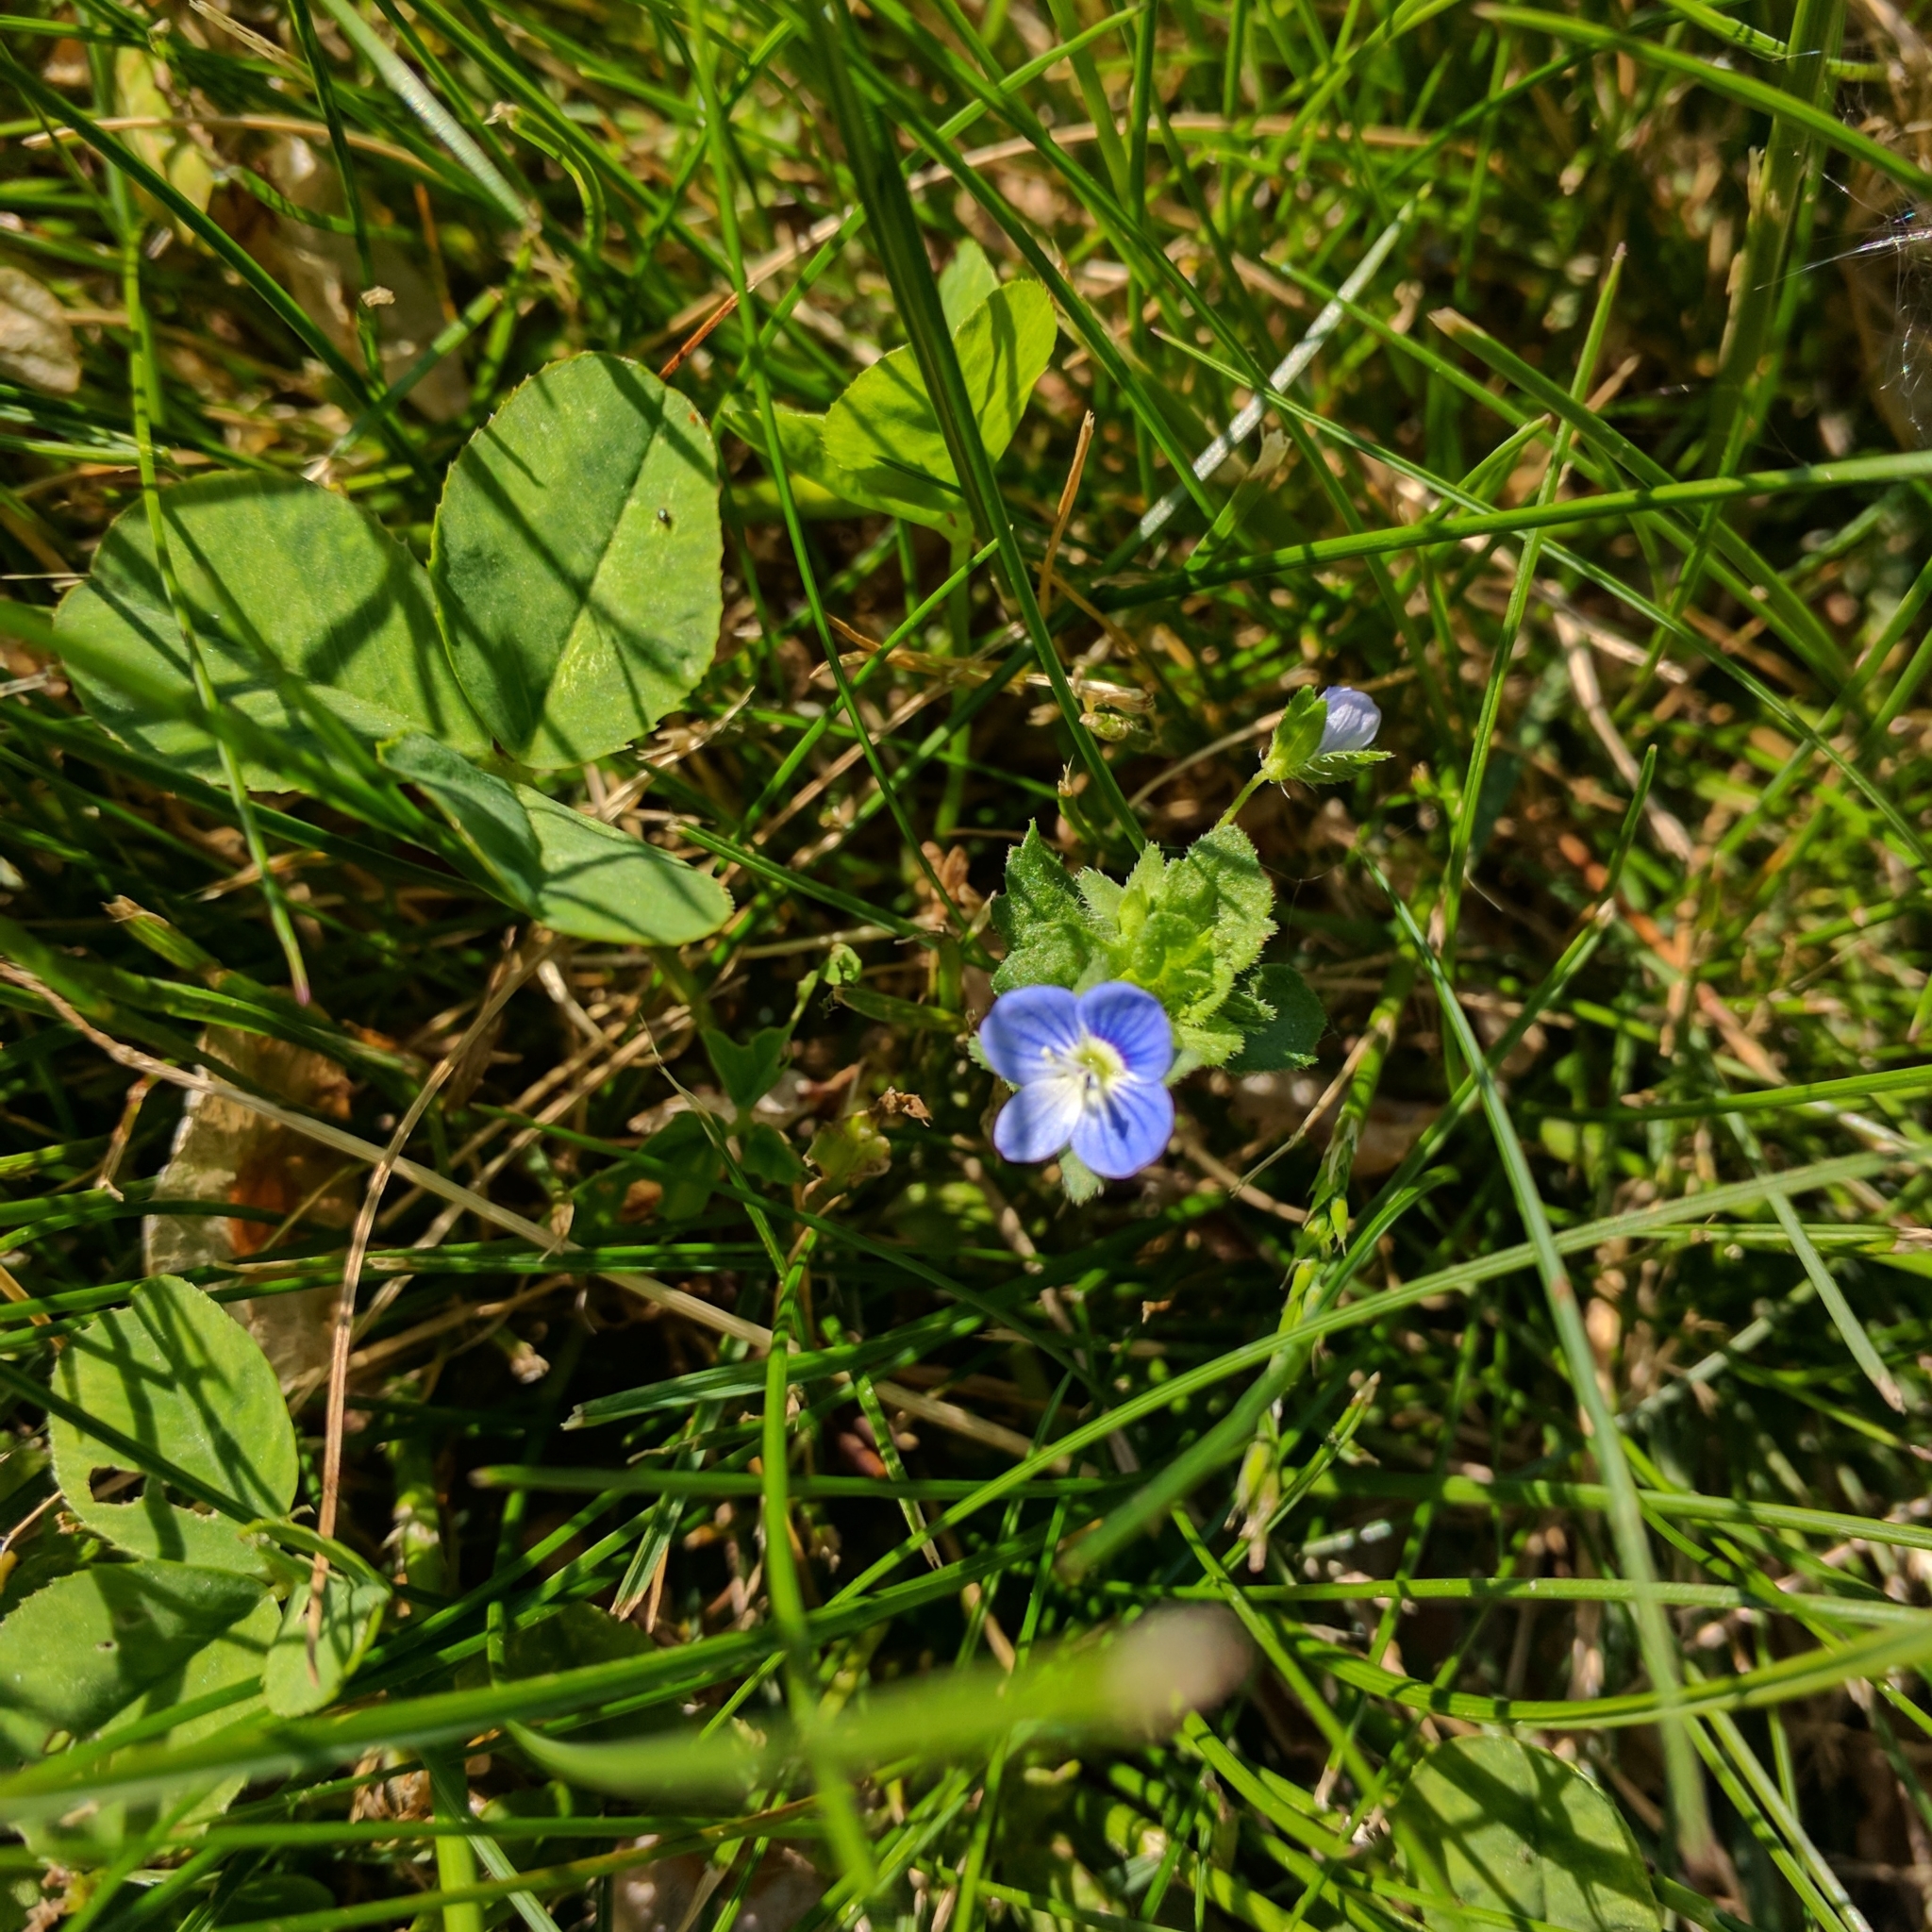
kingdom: Plantae
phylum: Tracheophyta
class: Magnoliopsida
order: Lamiales
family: Plantaginaceae
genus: Veronica
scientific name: Veronica persica
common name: Common field-speedwell
